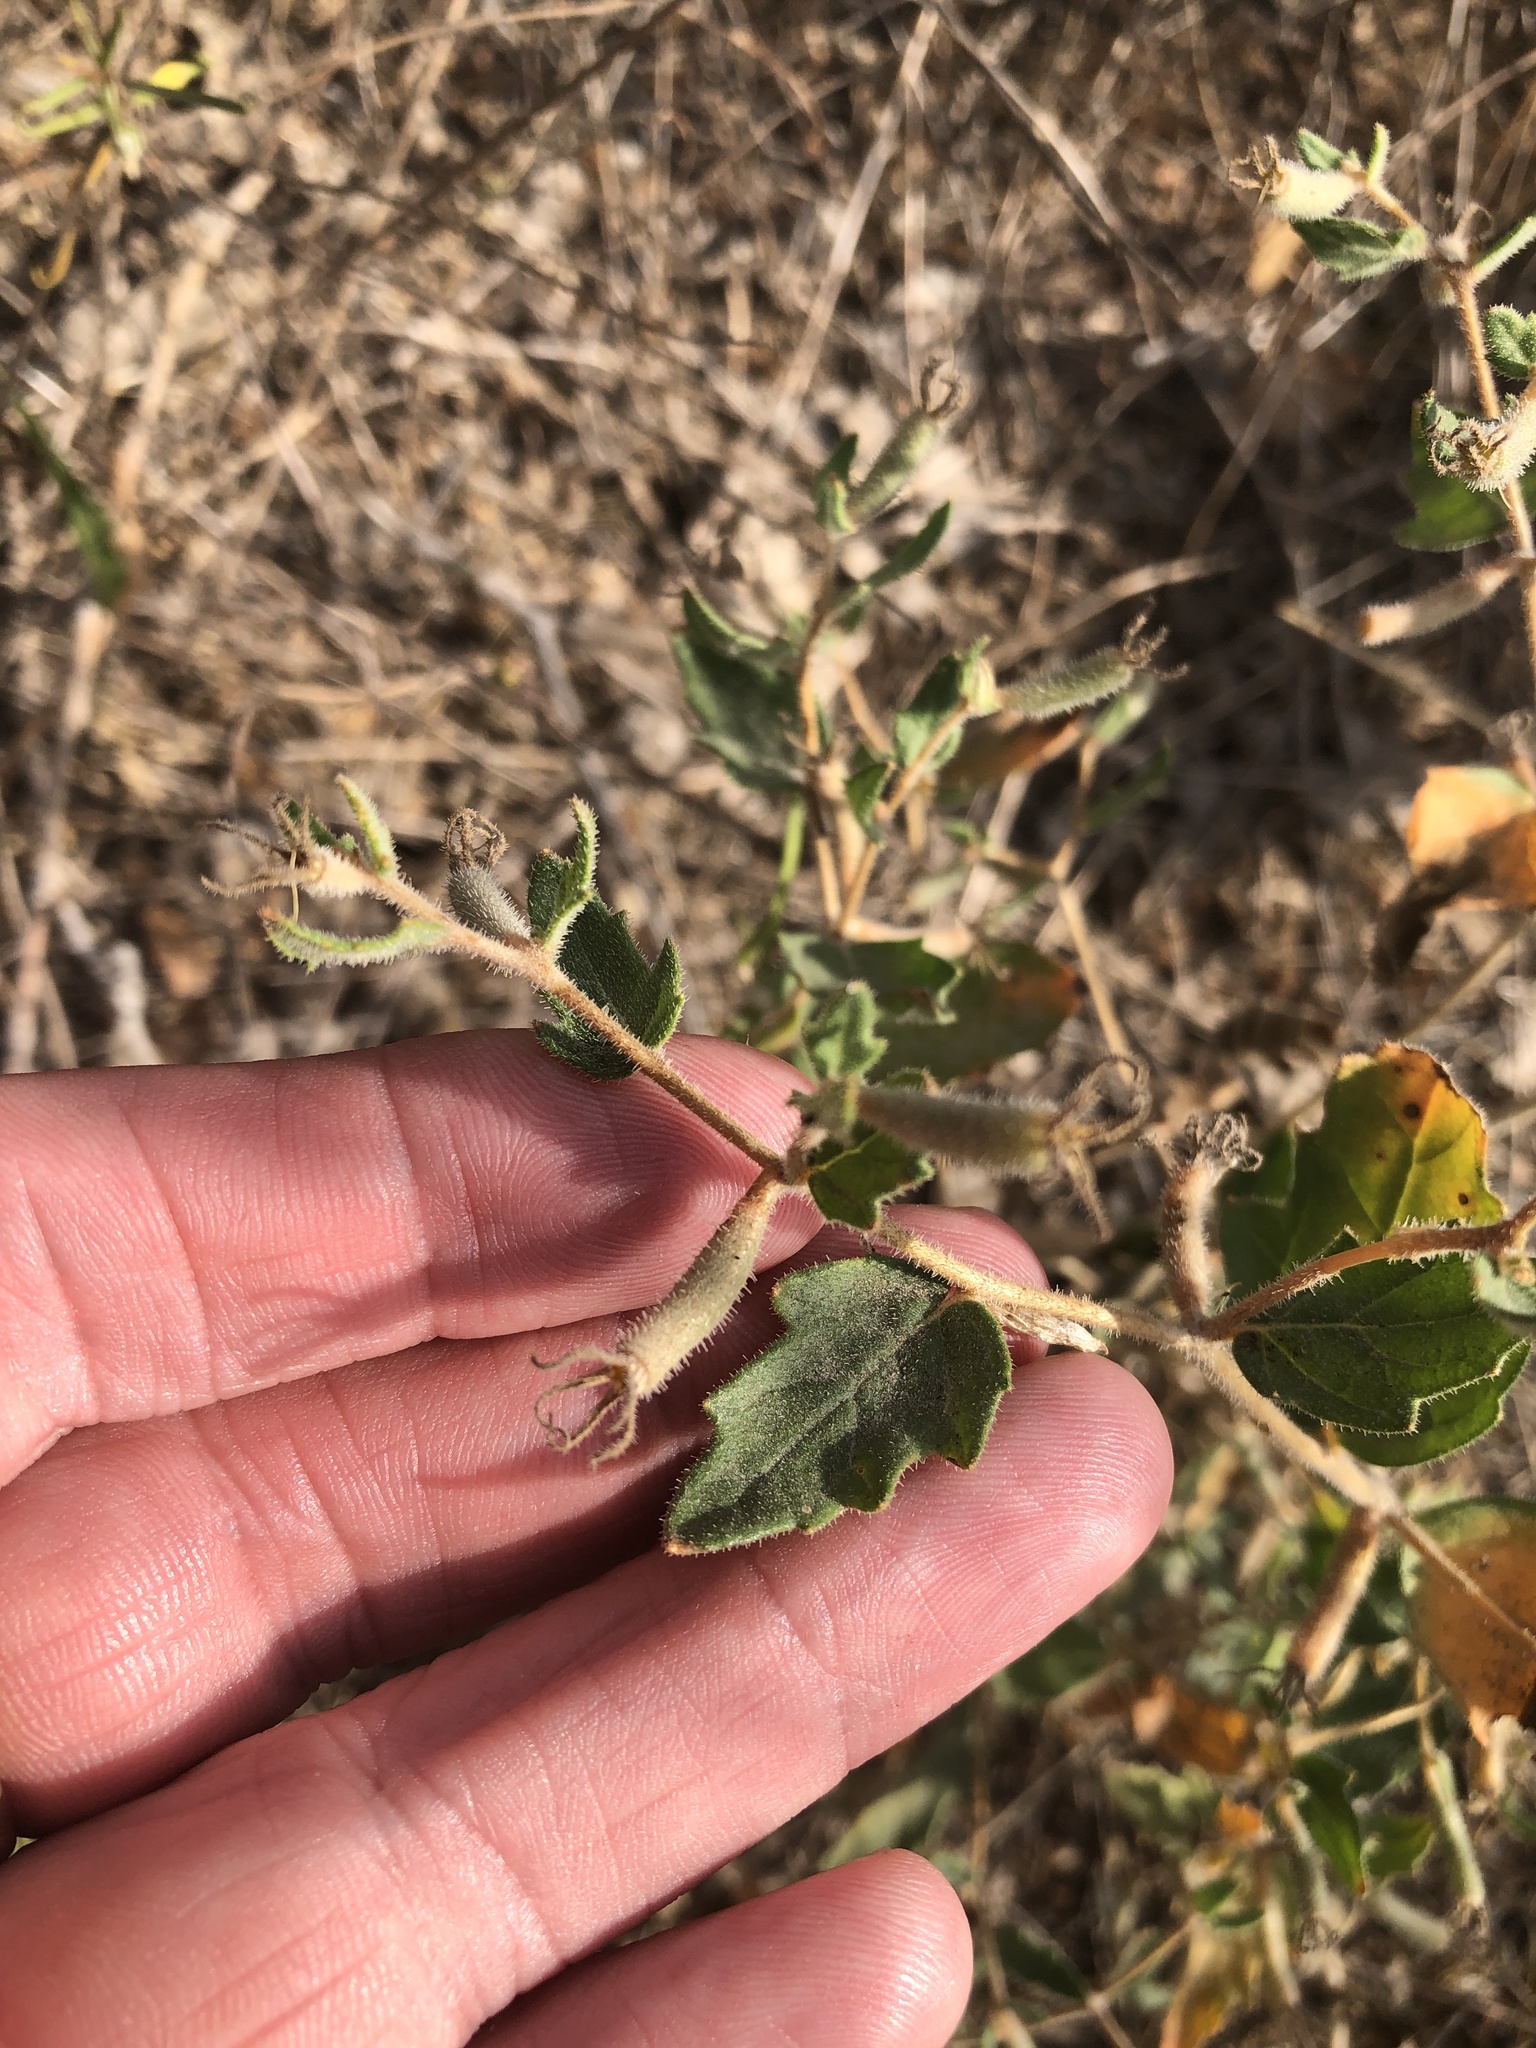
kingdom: Plantae
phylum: Tracheophyta
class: Magnoliopsida
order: Cornales
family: Loasaceae
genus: Mentzelia
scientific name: Mentzelia oligosperma
